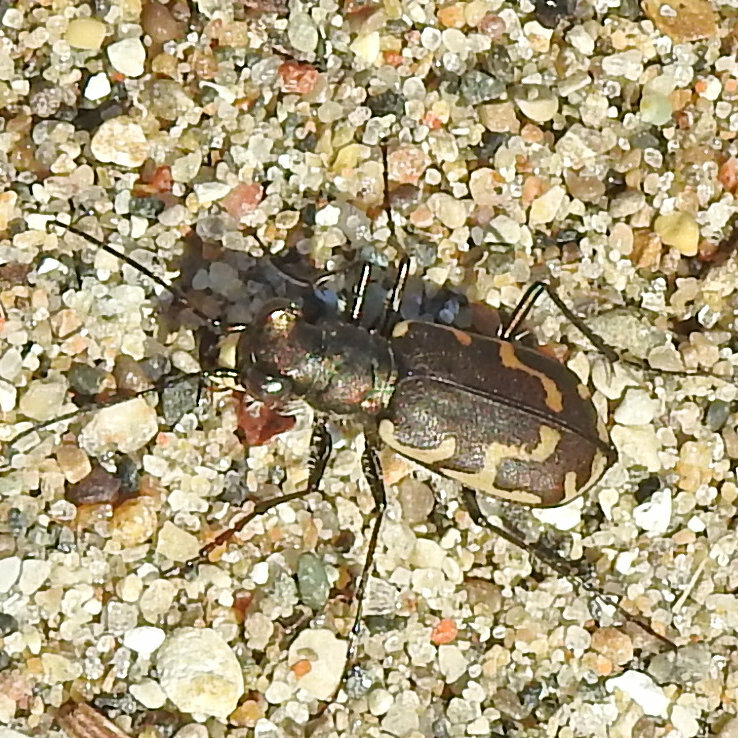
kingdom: Animalia
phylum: Arthropoda
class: Insecta
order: Coleoptera
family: Carabidae
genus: Cicindela
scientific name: Cicindela repanda
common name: Bronzed tiger beetle
